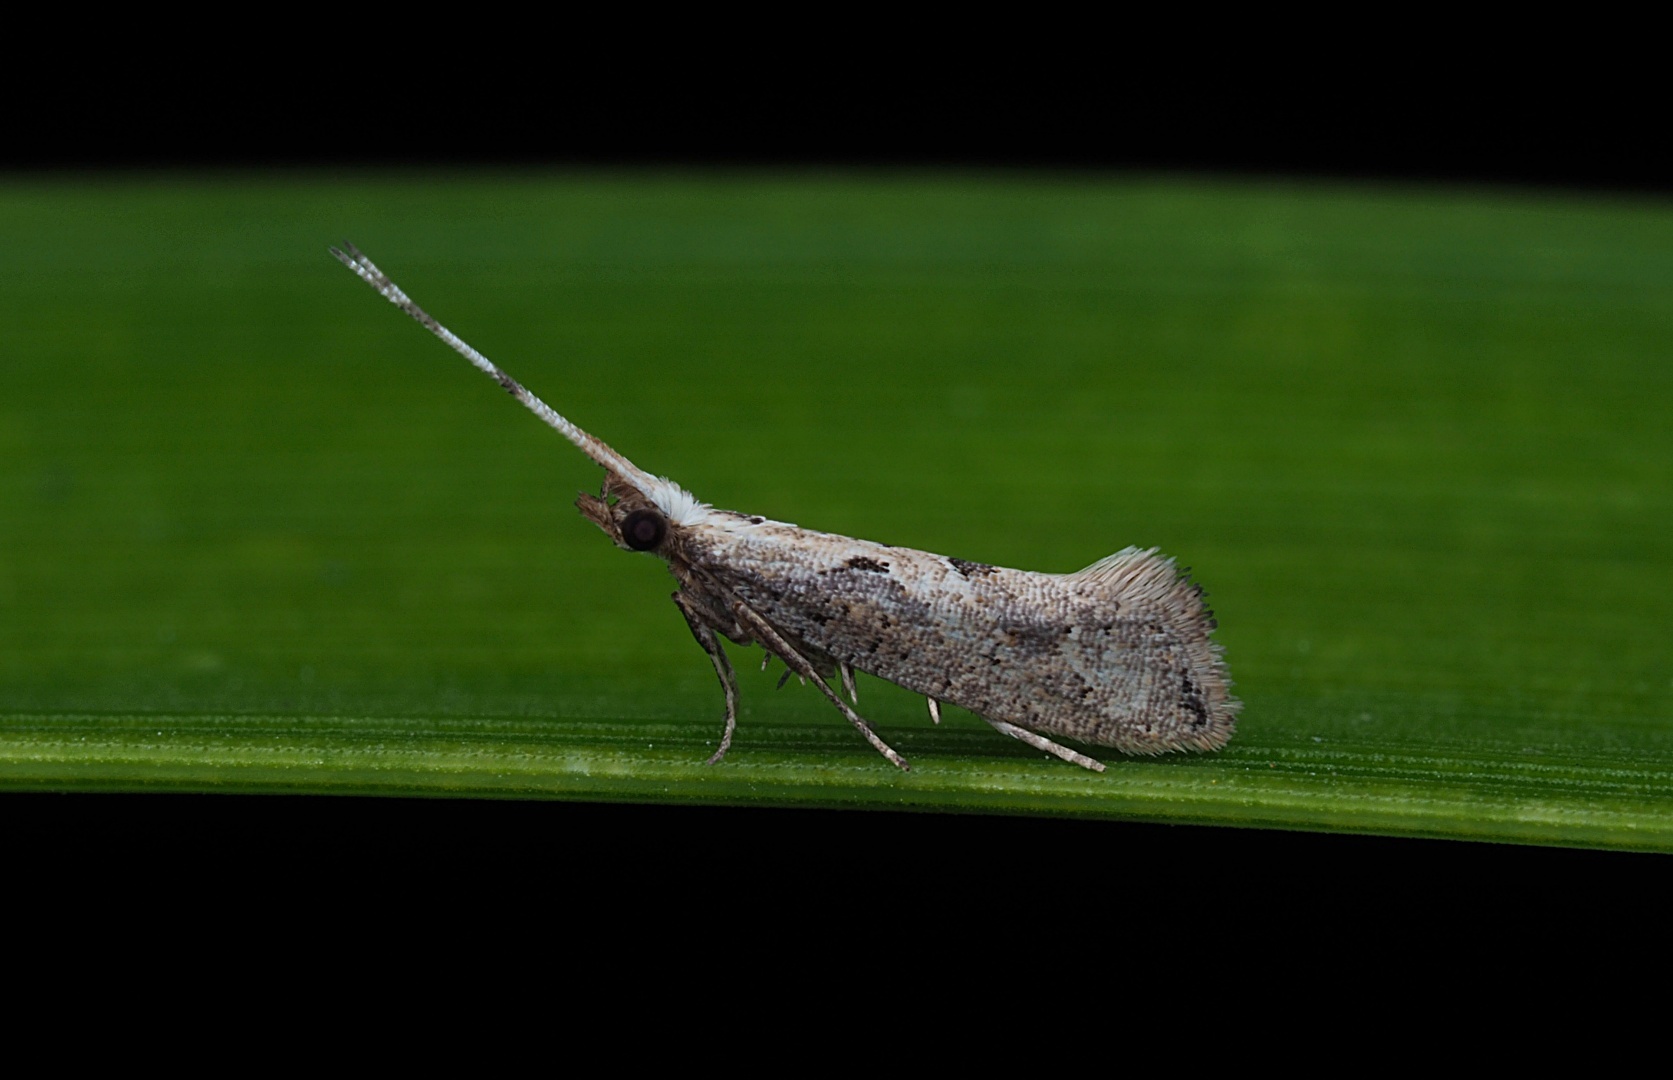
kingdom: Animalia
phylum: Arthropoda
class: Insecta
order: Lepidoptera
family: Plutellidae
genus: Leuroperna
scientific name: Leuroperna sera
